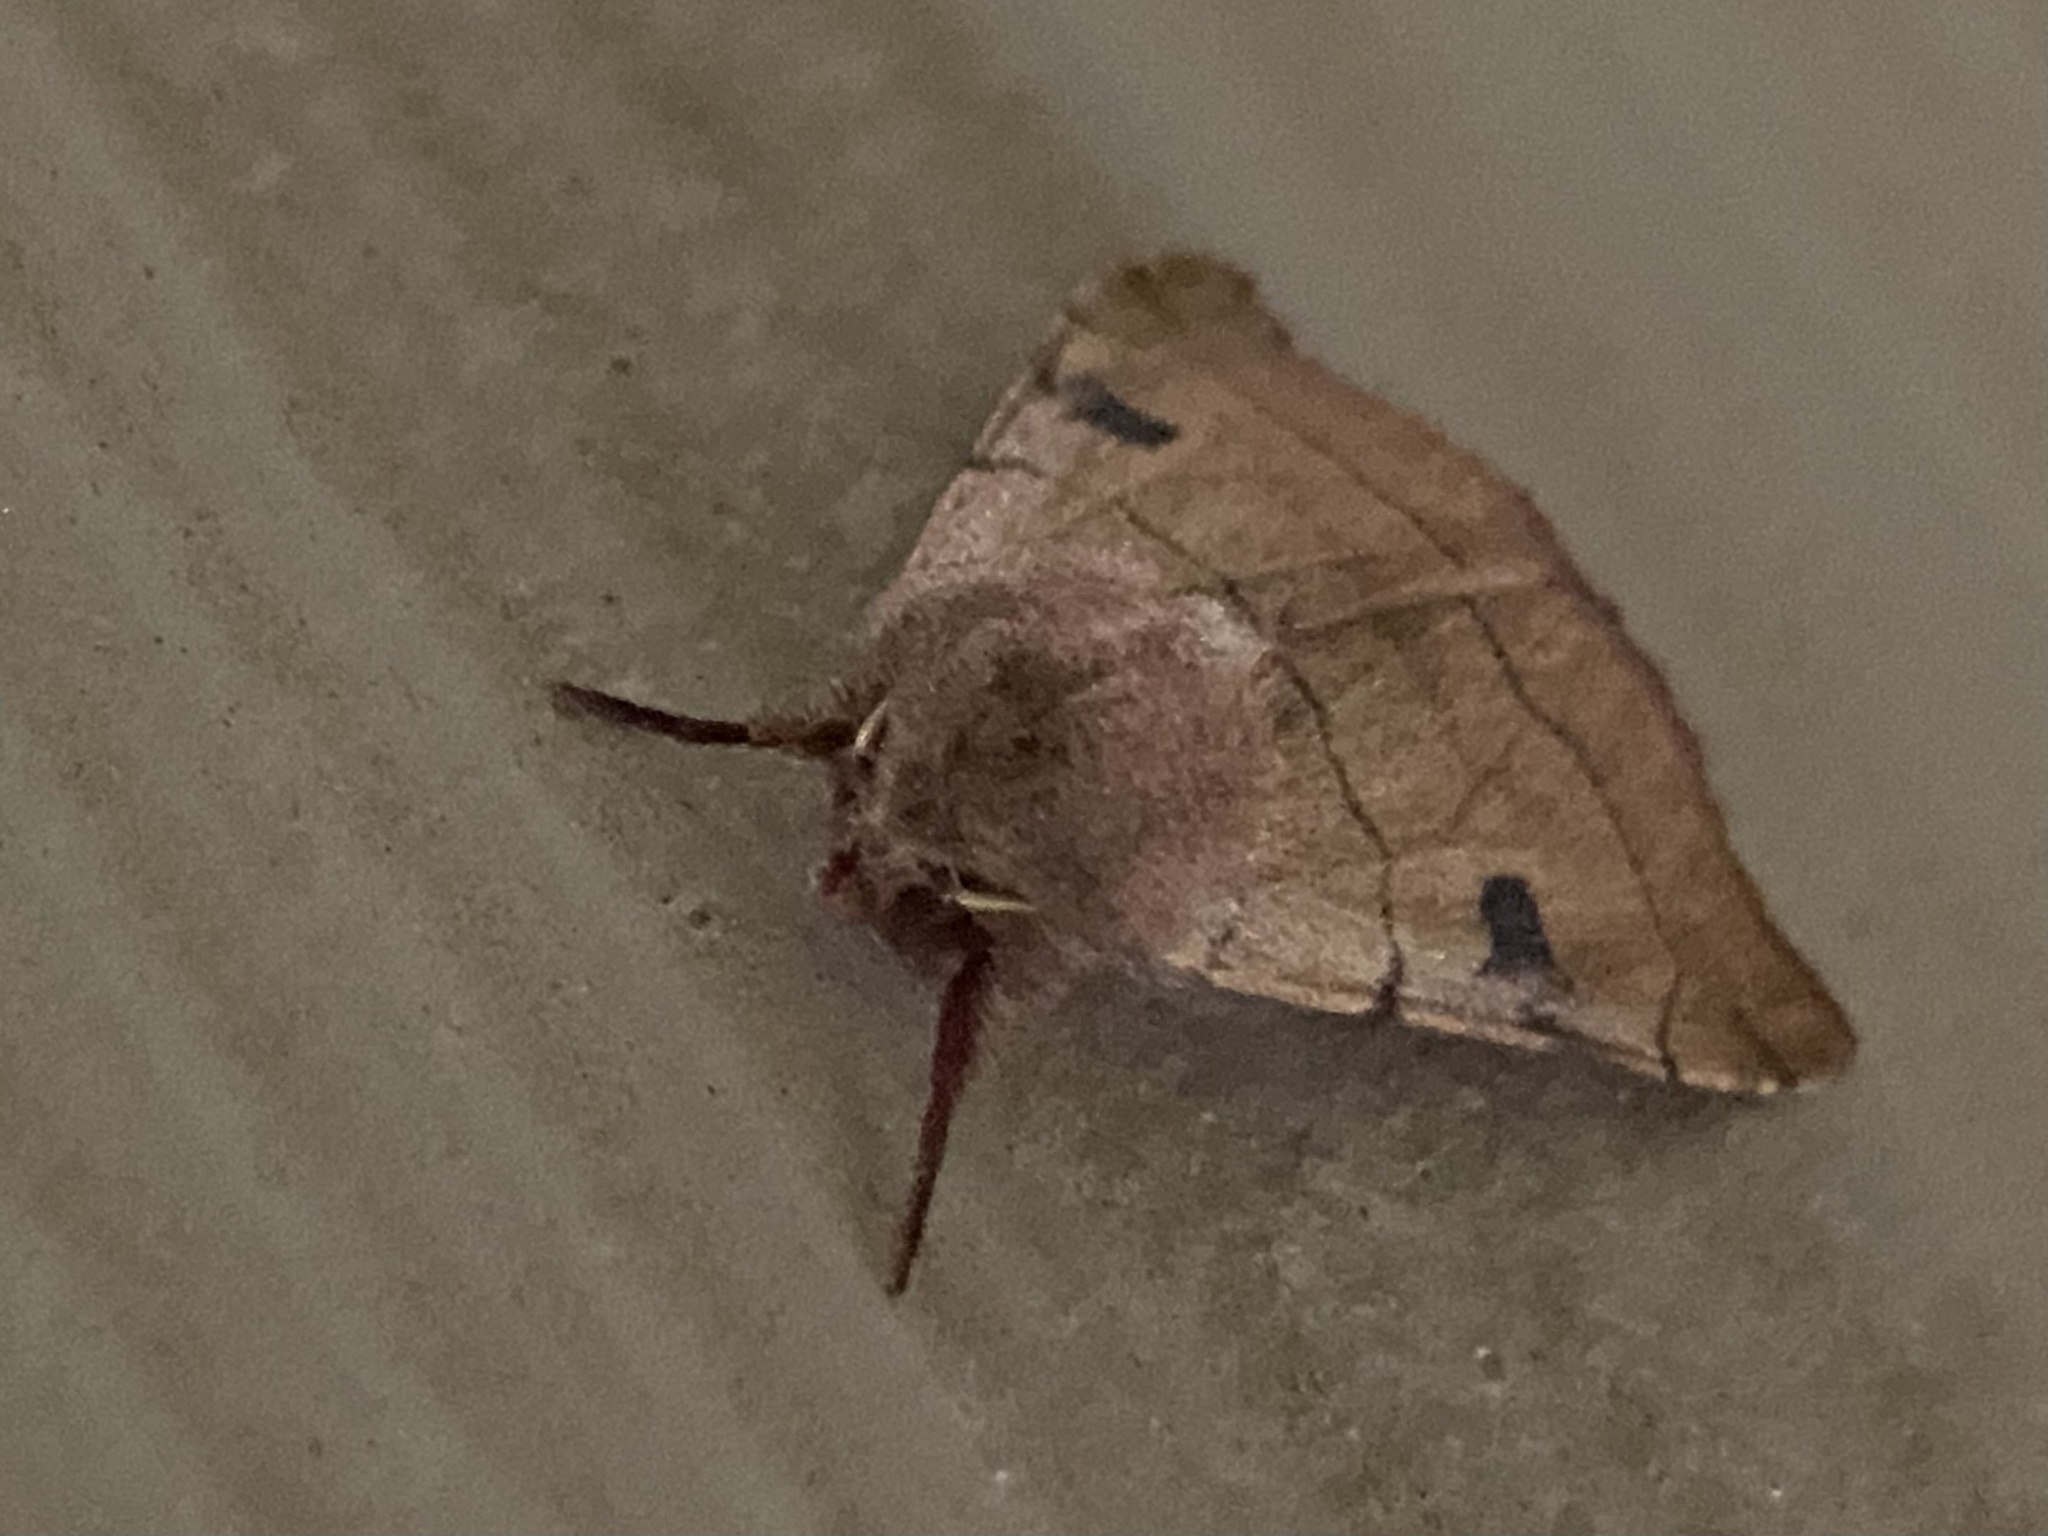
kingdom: Animalia
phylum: Arthropoda
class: Insecta
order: Lepidoptera
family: Noctuidae
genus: Choephora
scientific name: Choephora fungorum
